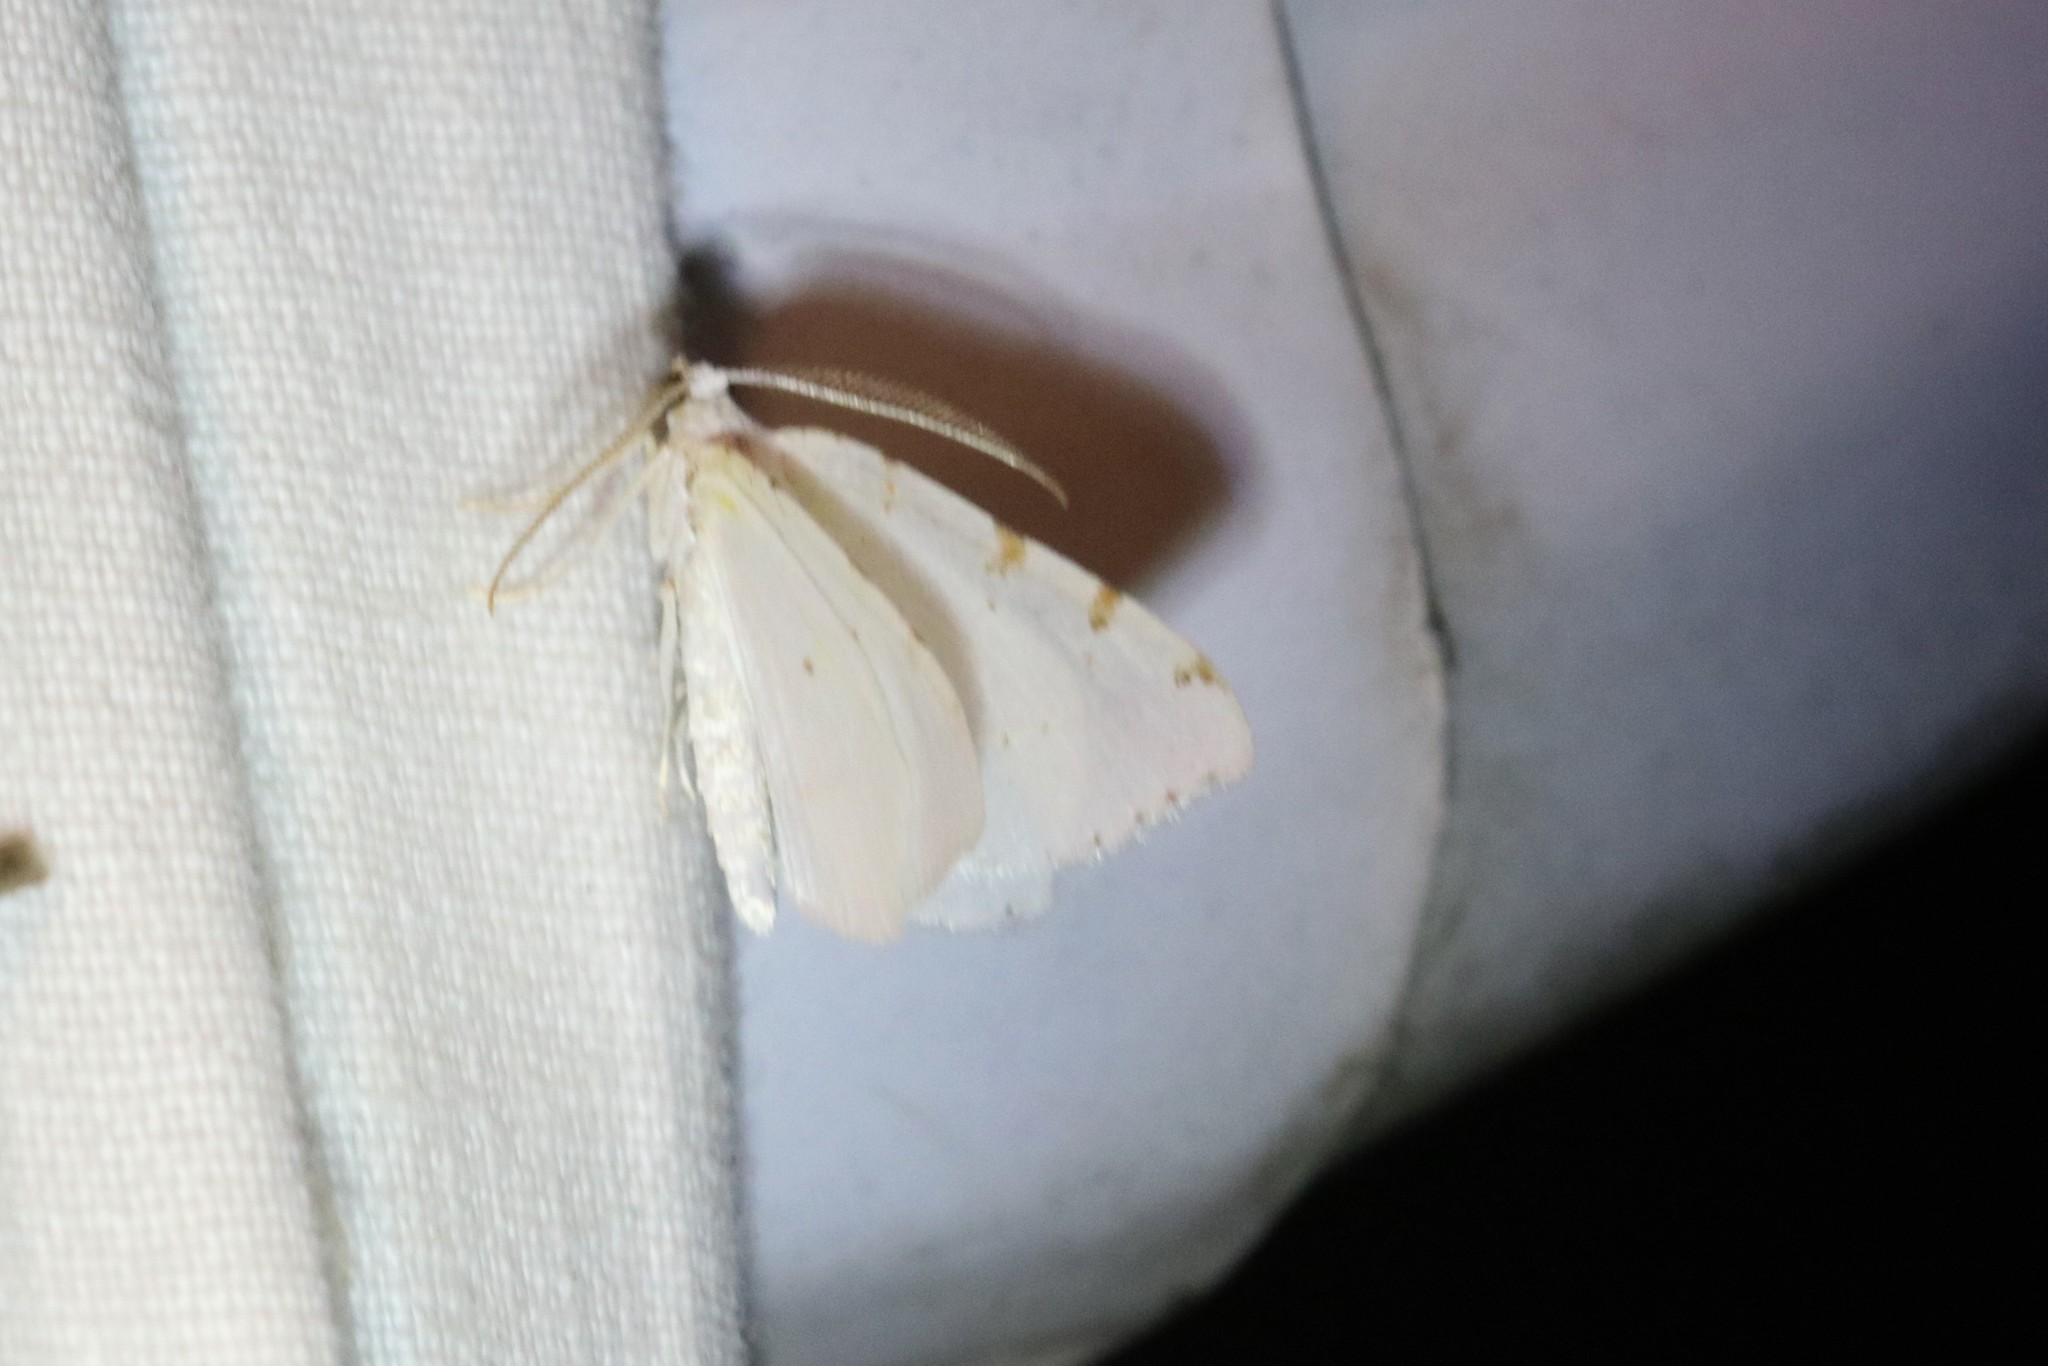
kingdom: Animalia
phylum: Arthropoda
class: Insecta
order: Lepidoptera
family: Geometridae
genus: Macaria
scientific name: Macaria pustularia
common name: Lesser maple spanworm moth
